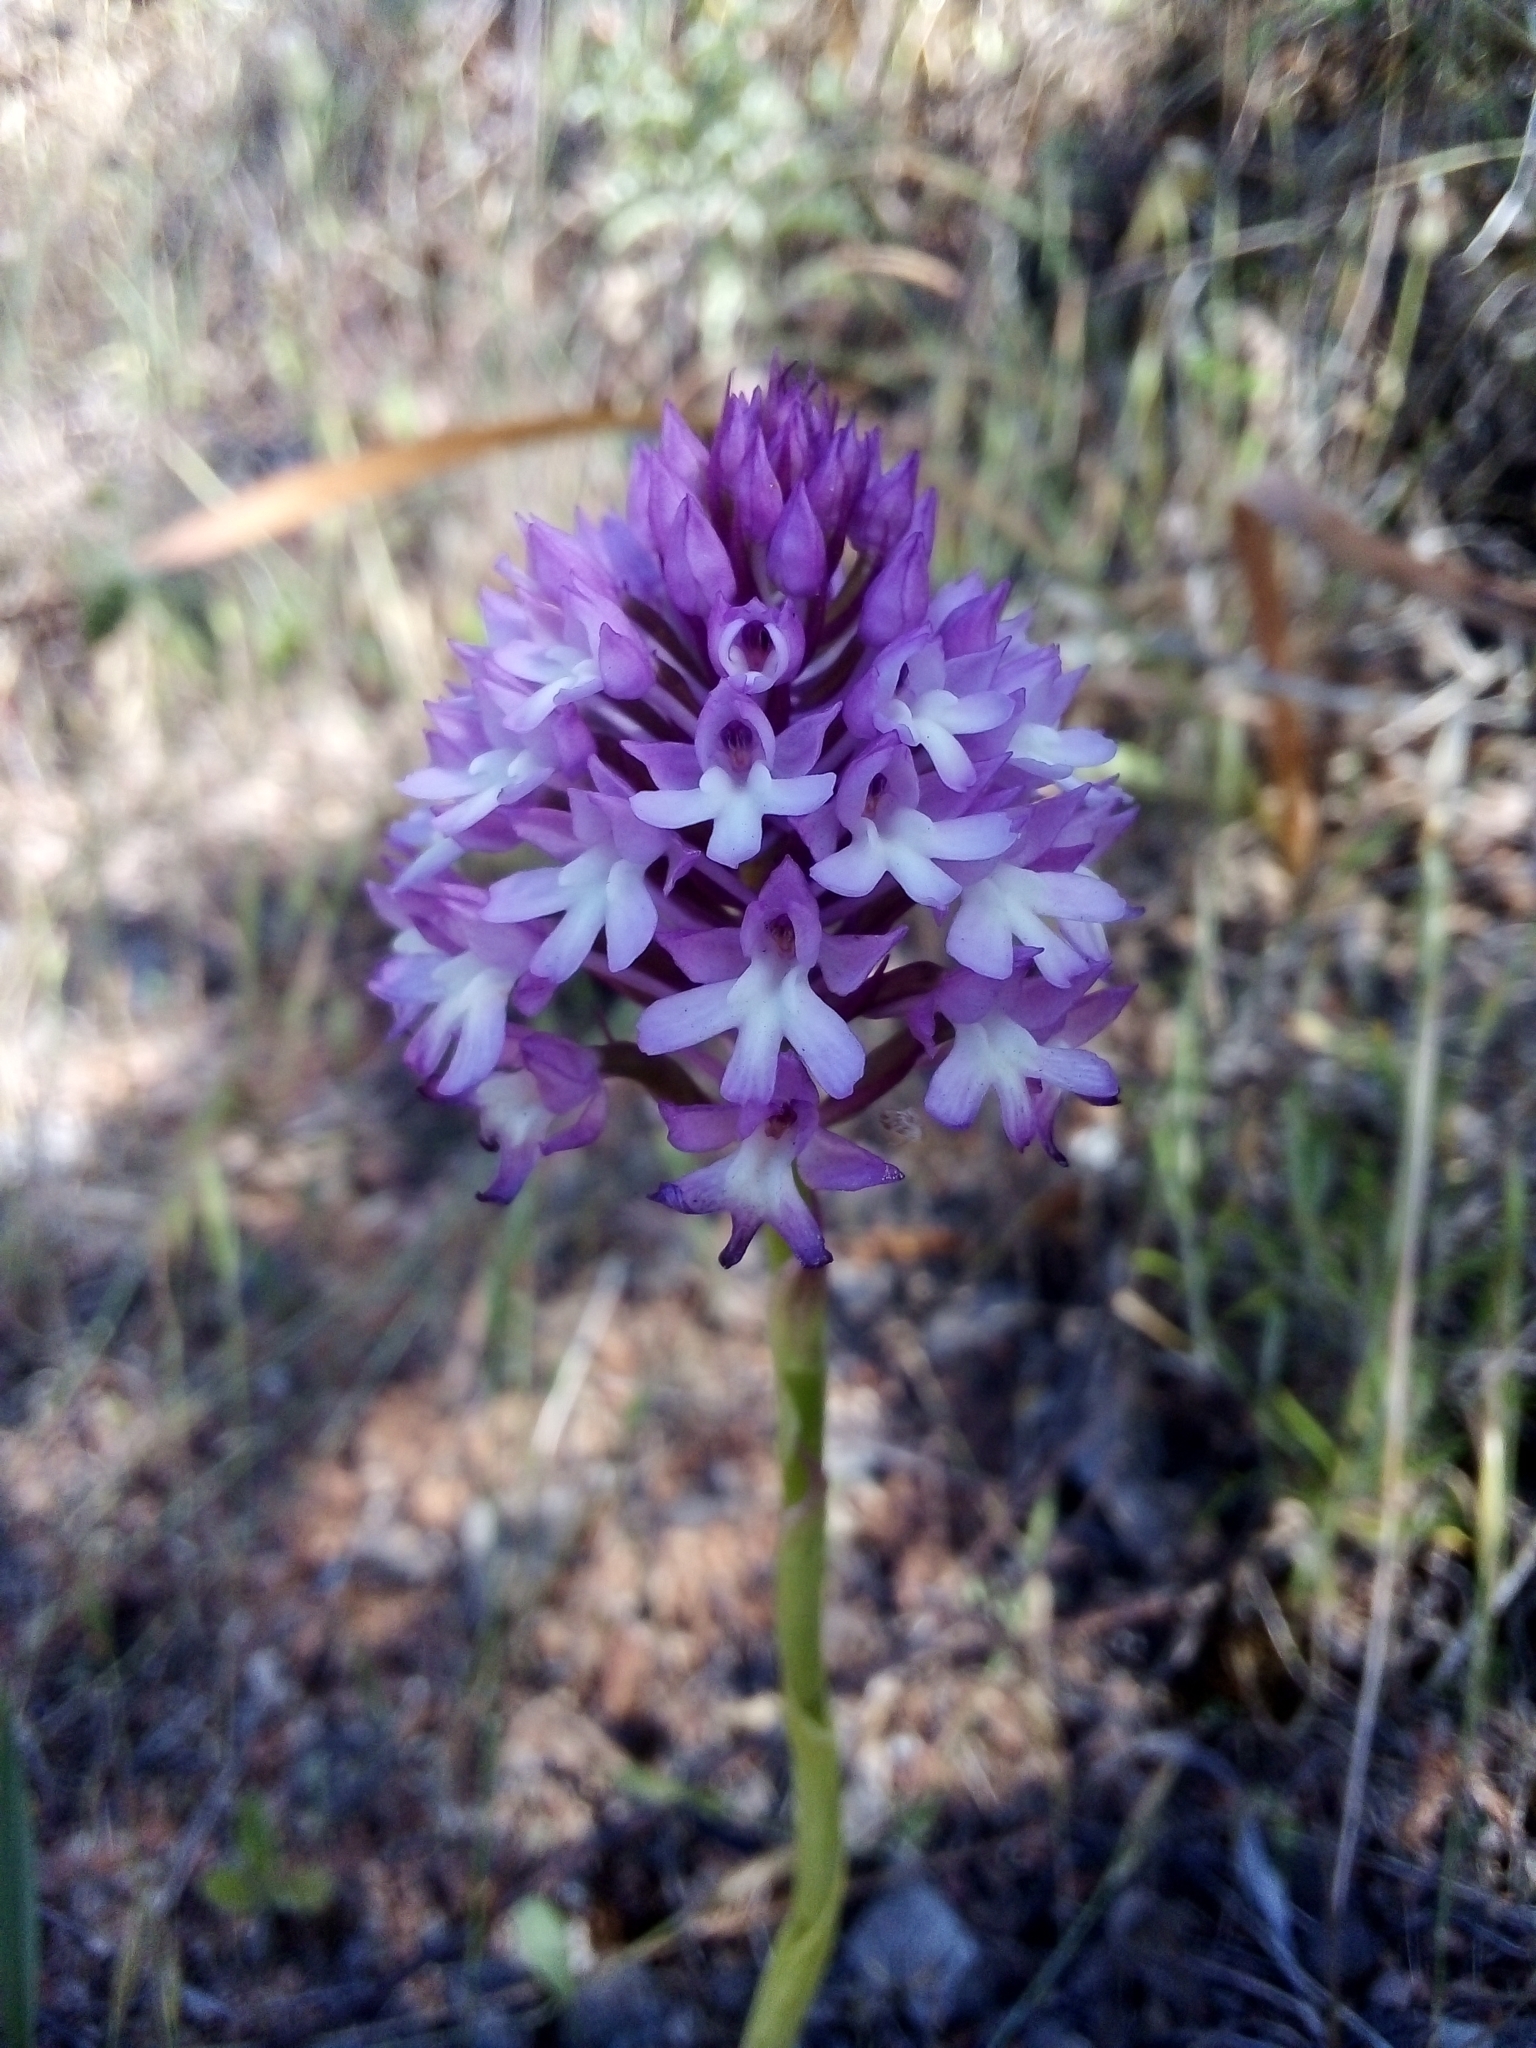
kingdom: Plantae
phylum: Tracheophyta
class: Liliopsida
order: Asparagales
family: Orchidaceae
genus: Anacamptis
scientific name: Anacamptis pyramidalis
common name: Pyramidal orchid
